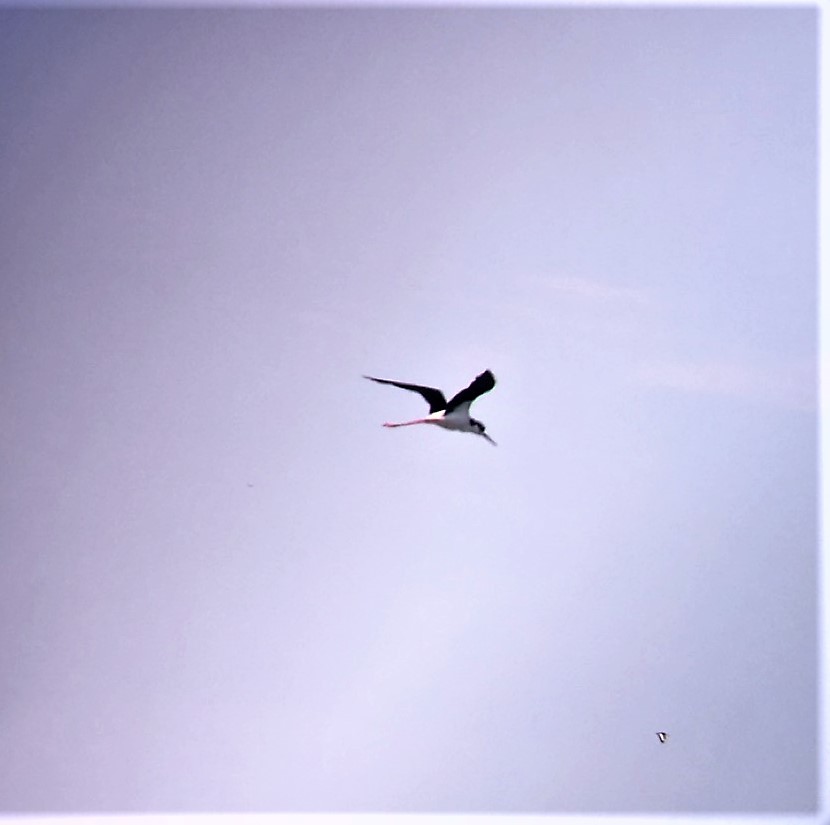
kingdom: Animalia
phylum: Chordata
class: Aves
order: Charadriiformes
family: Recurvirostridae
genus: Himantopus
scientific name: Himantopus mexicanus
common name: Black-necked stilt
